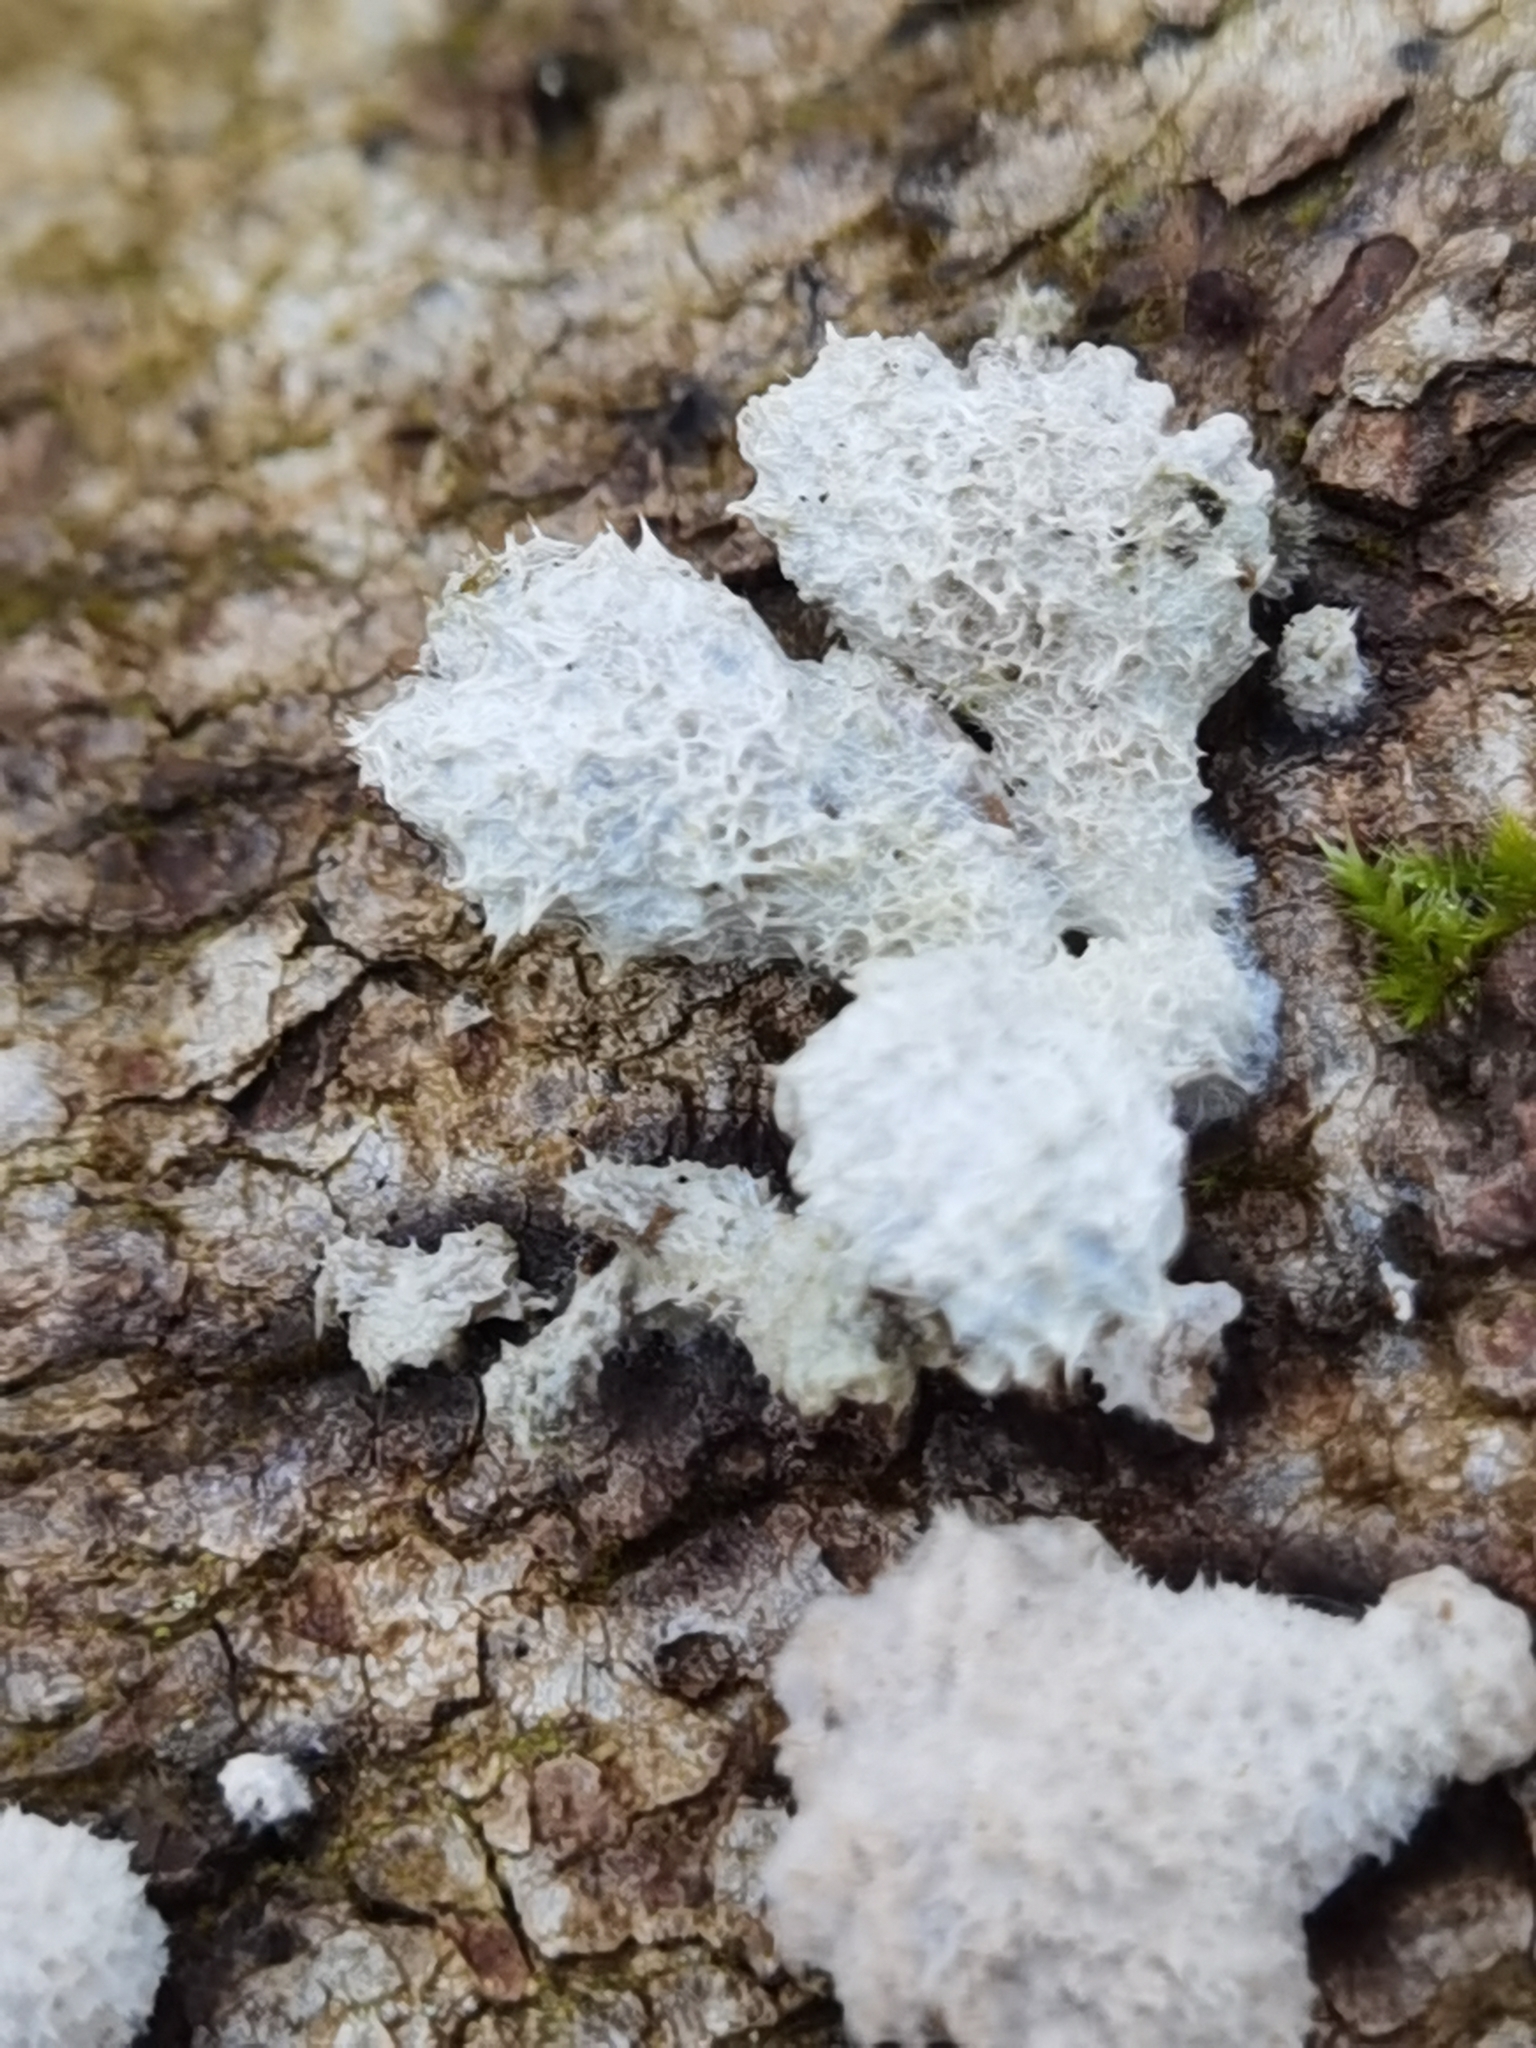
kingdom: Fungi
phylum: Basidiomycota
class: Agaricomycetes
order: Agaricales
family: Schizophyllaceae
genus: Schizophyllum
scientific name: Schizophyllum commune
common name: Common porecrust
